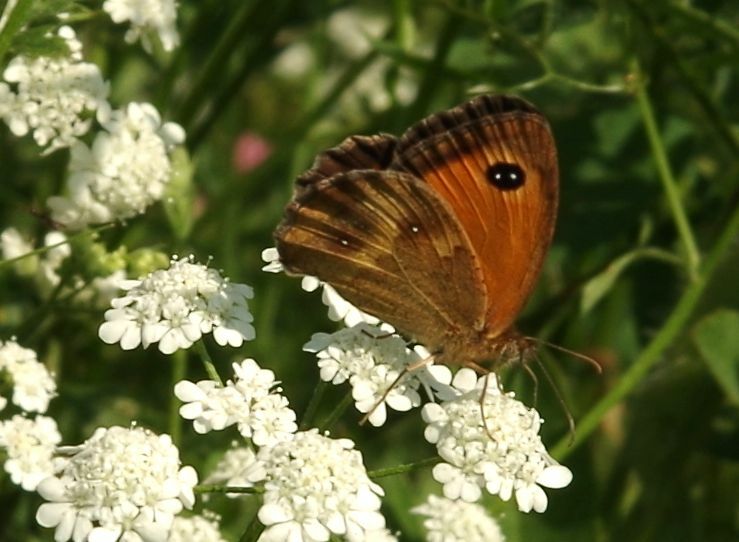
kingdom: Animalia
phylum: Arthropoda
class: Insecta
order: Lepidoptera
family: Nymphalidae
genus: Pyronia
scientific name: Pyronia tithonus
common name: Gatekeeper
